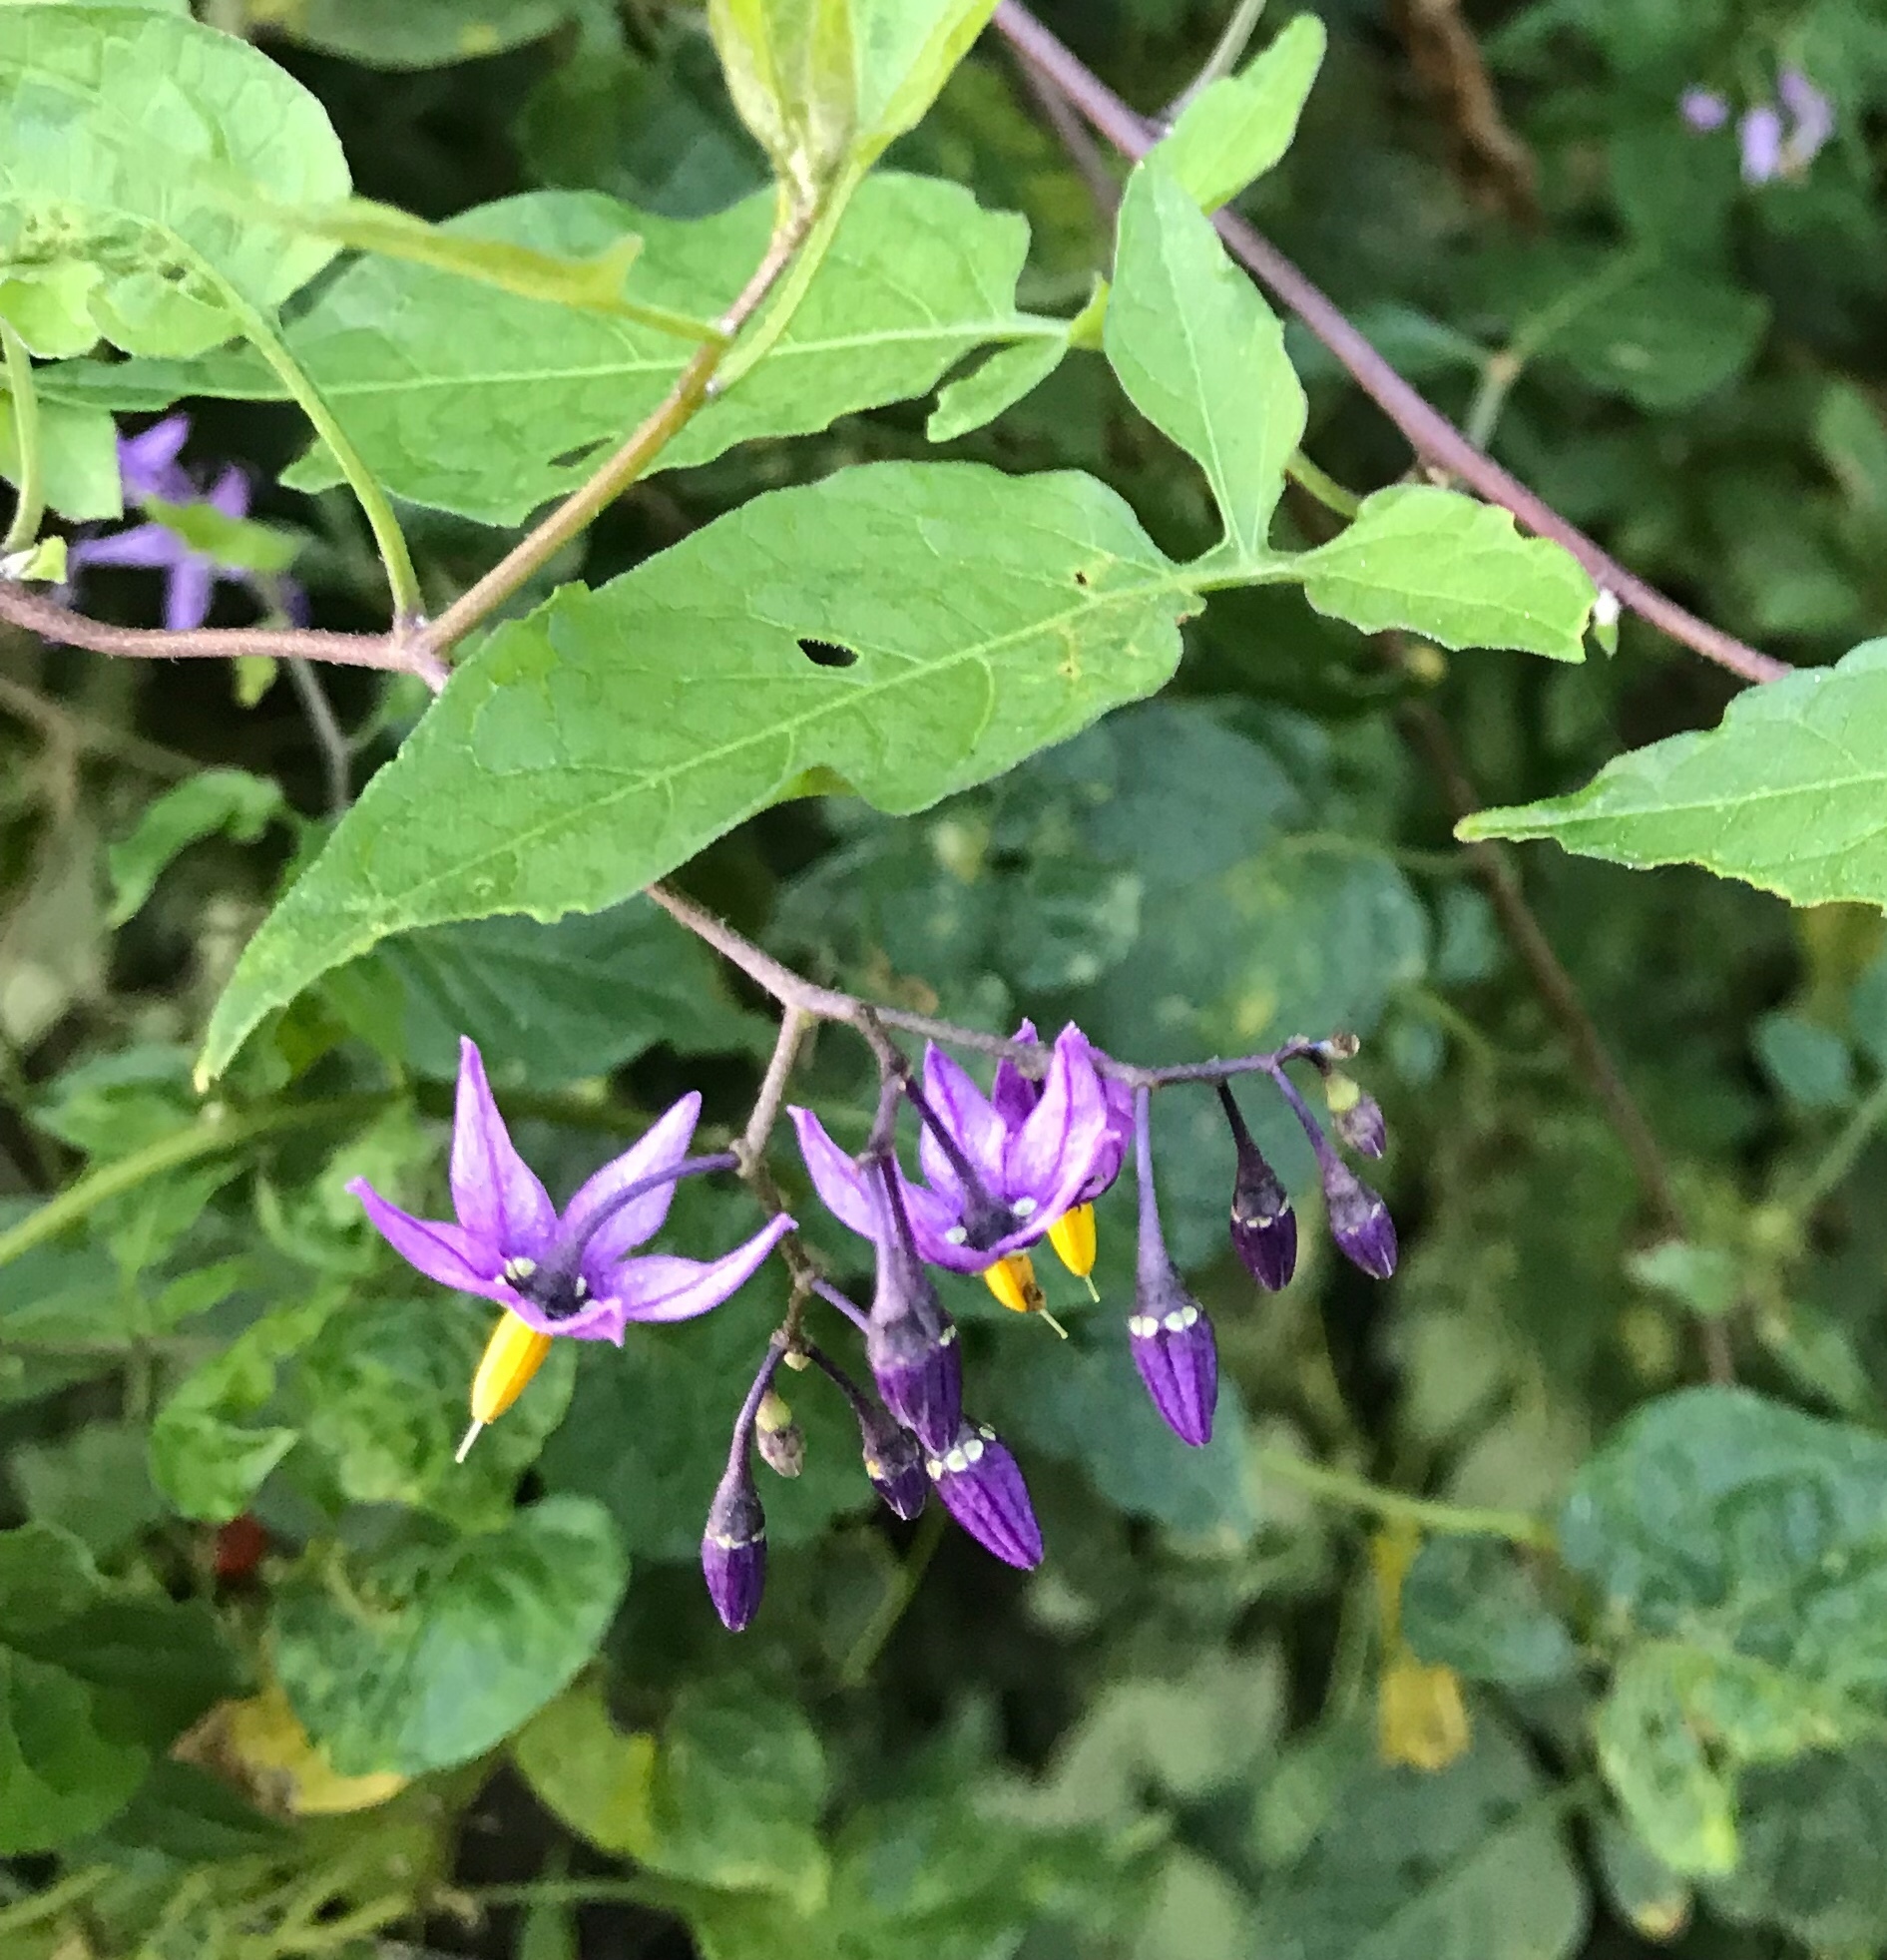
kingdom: Plantae
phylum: Tracheophyta
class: Magnoliopsida
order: Solanales
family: Solanaceae
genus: Solanum
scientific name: Solanum dulcamara
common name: Climbing nightshade
